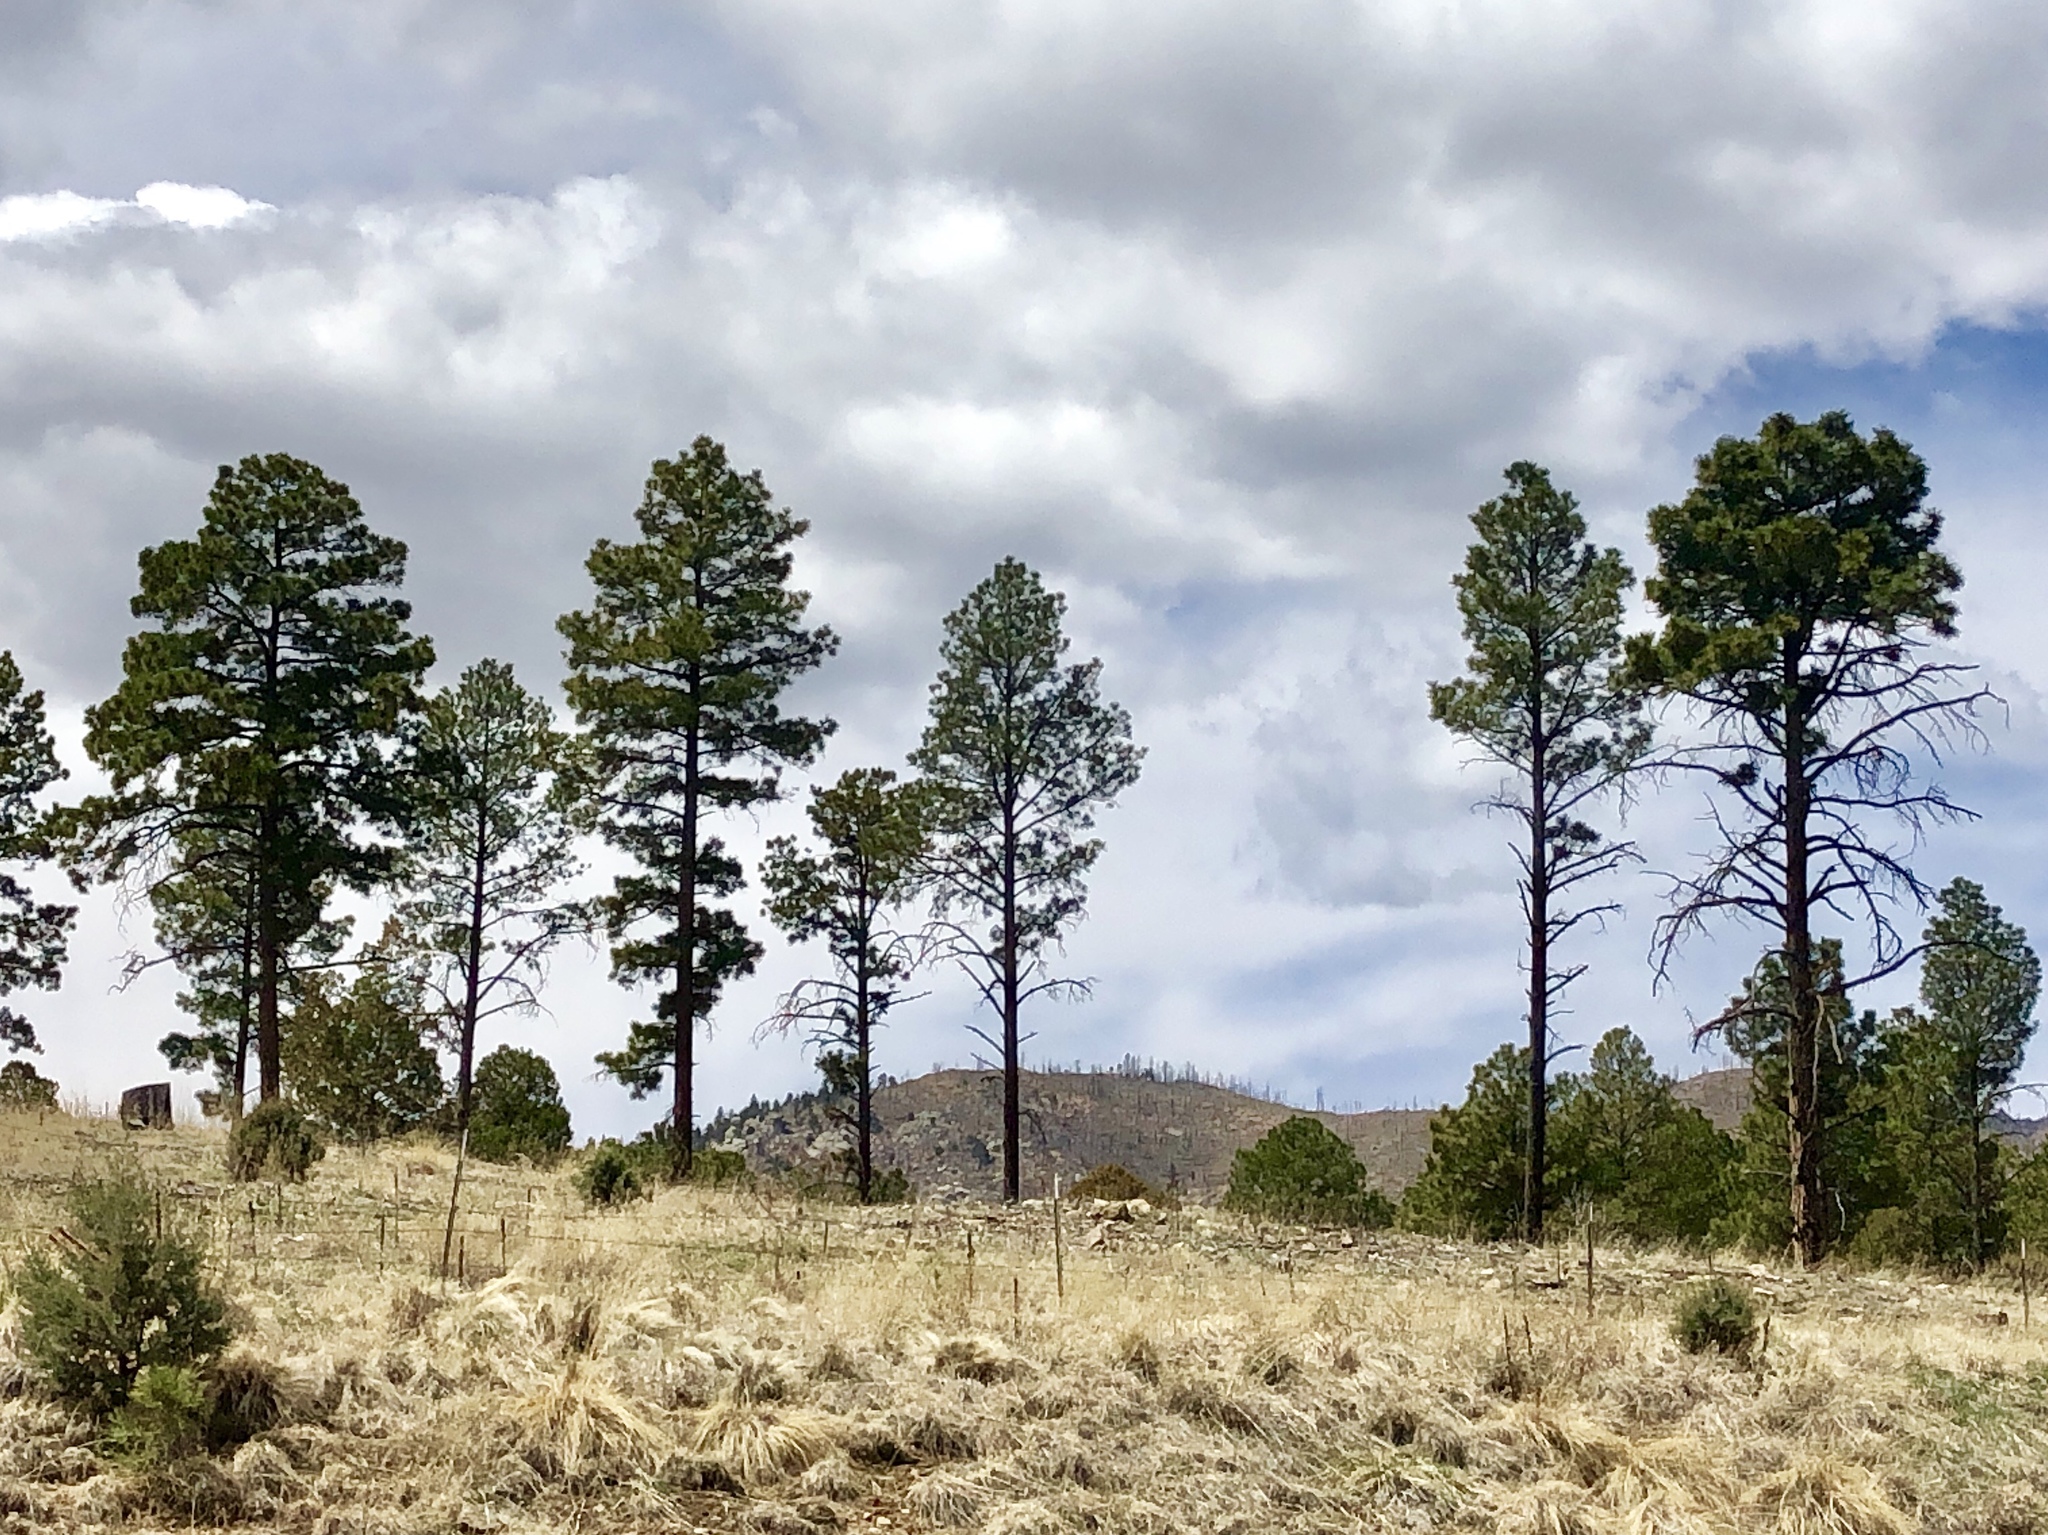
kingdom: Plantae
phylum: Tracheophyta
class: Pinopsida
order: Pinales
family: Pinaceae
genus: Pinus
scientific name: Pinus ponderosa
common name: Western yellow-pine
